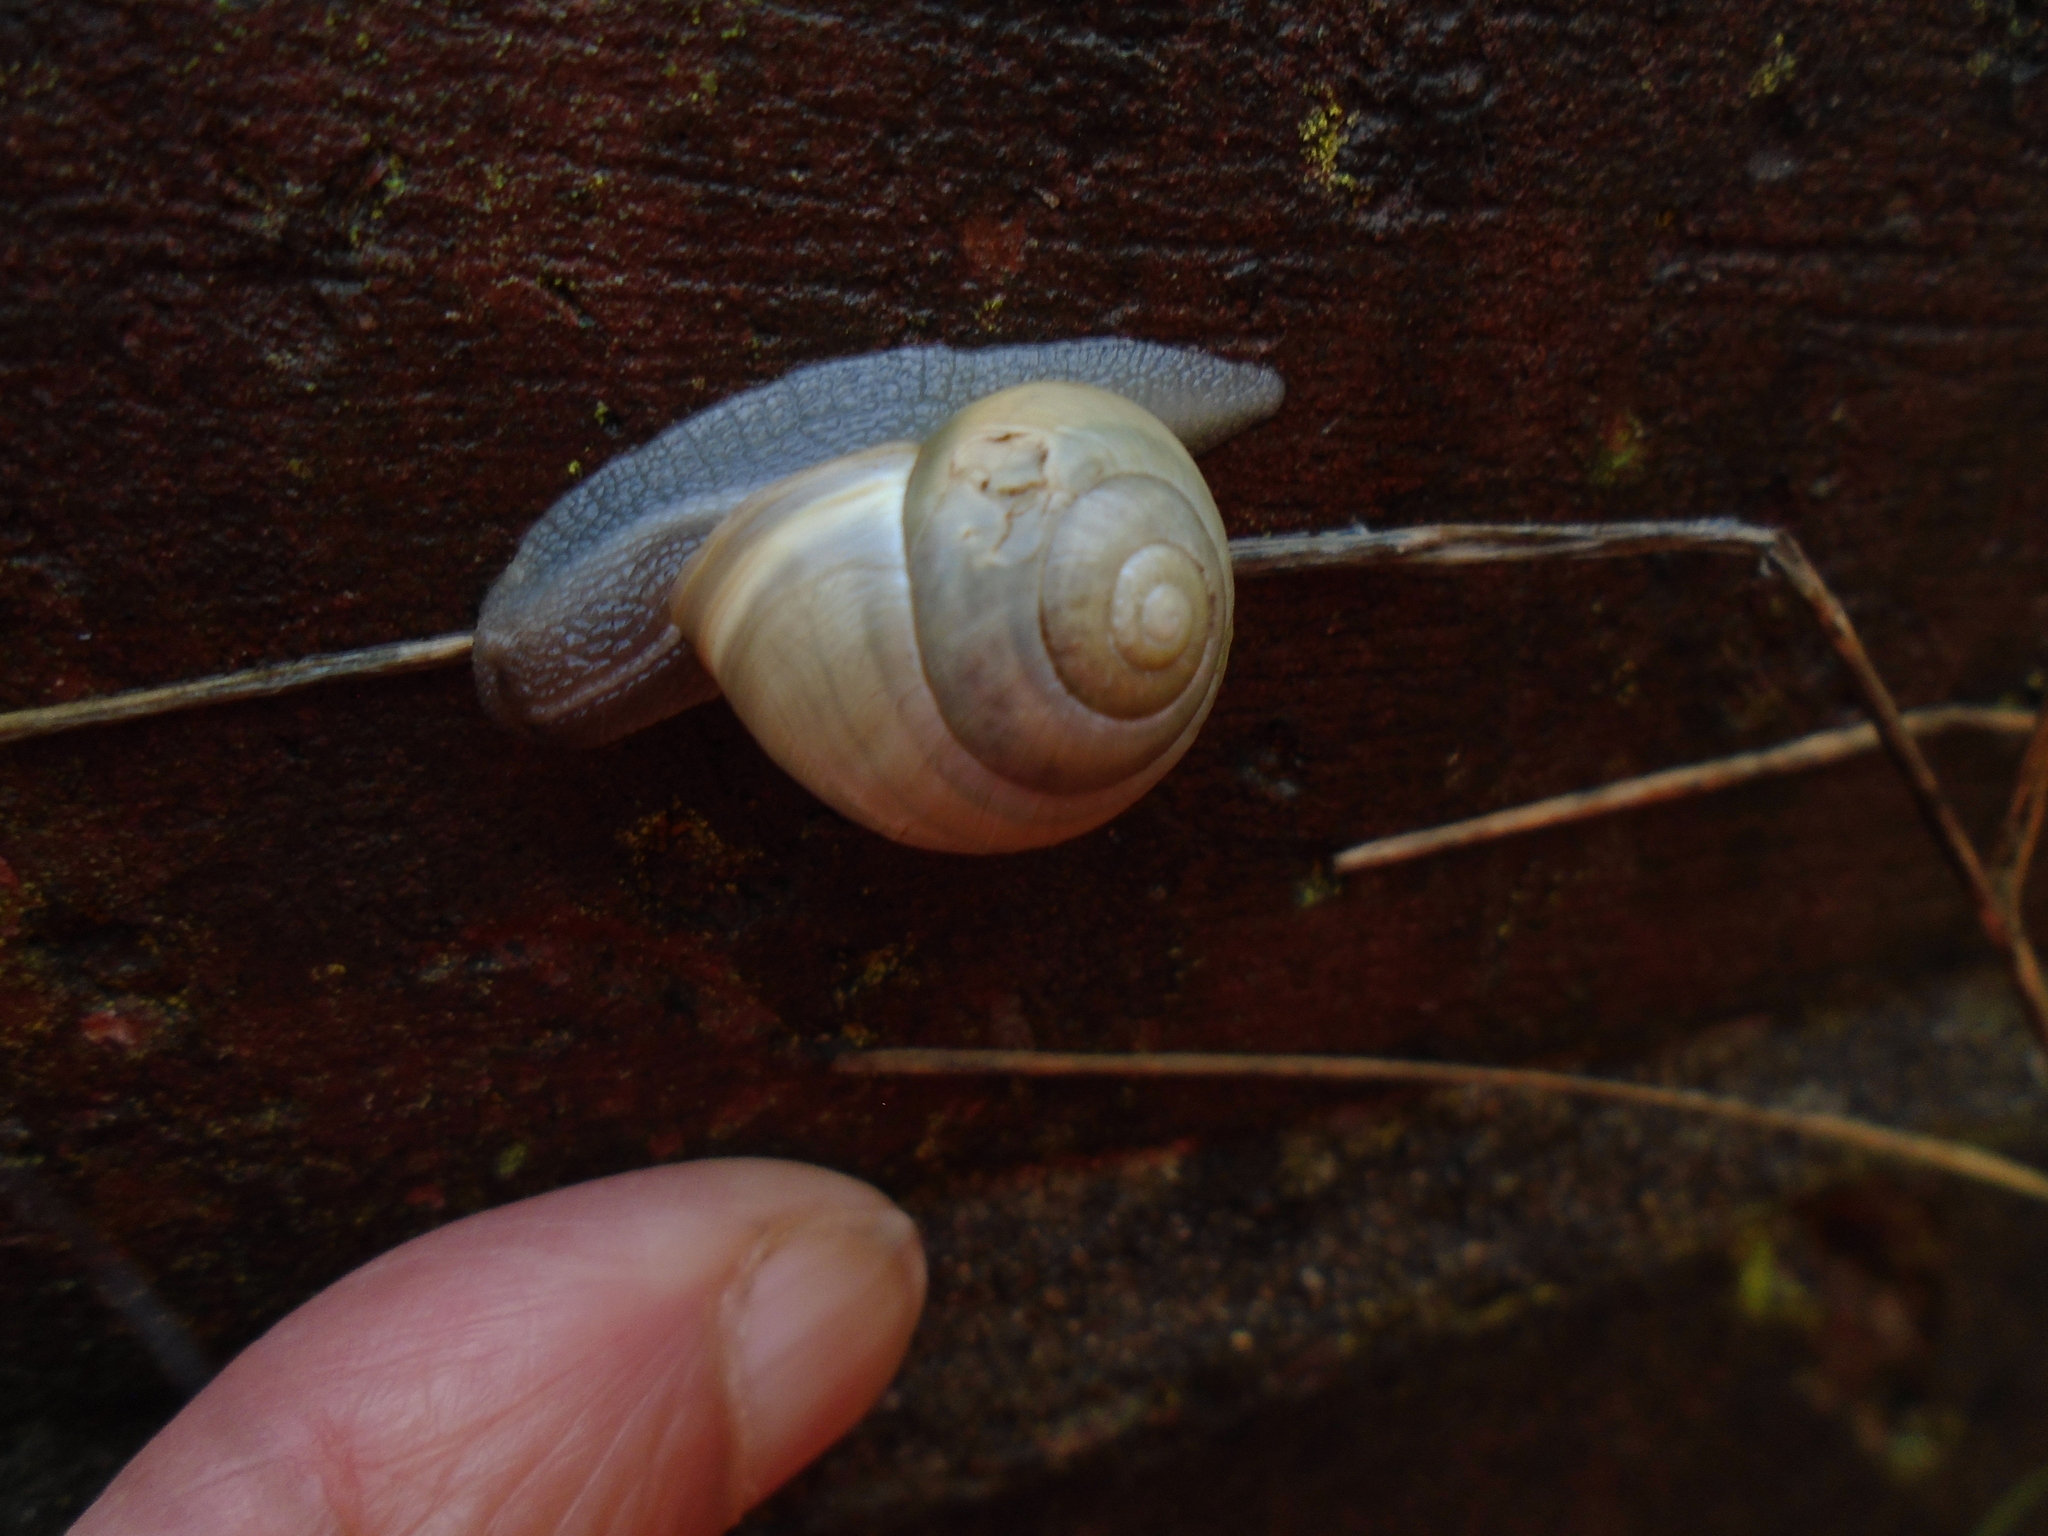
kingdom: Animalia
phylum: Mollusca
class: Gastropoda
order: Stylommatophora
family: Helicidae
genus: Cepaea
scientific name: Cepaea hortensis
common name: White-lip gardensnail
